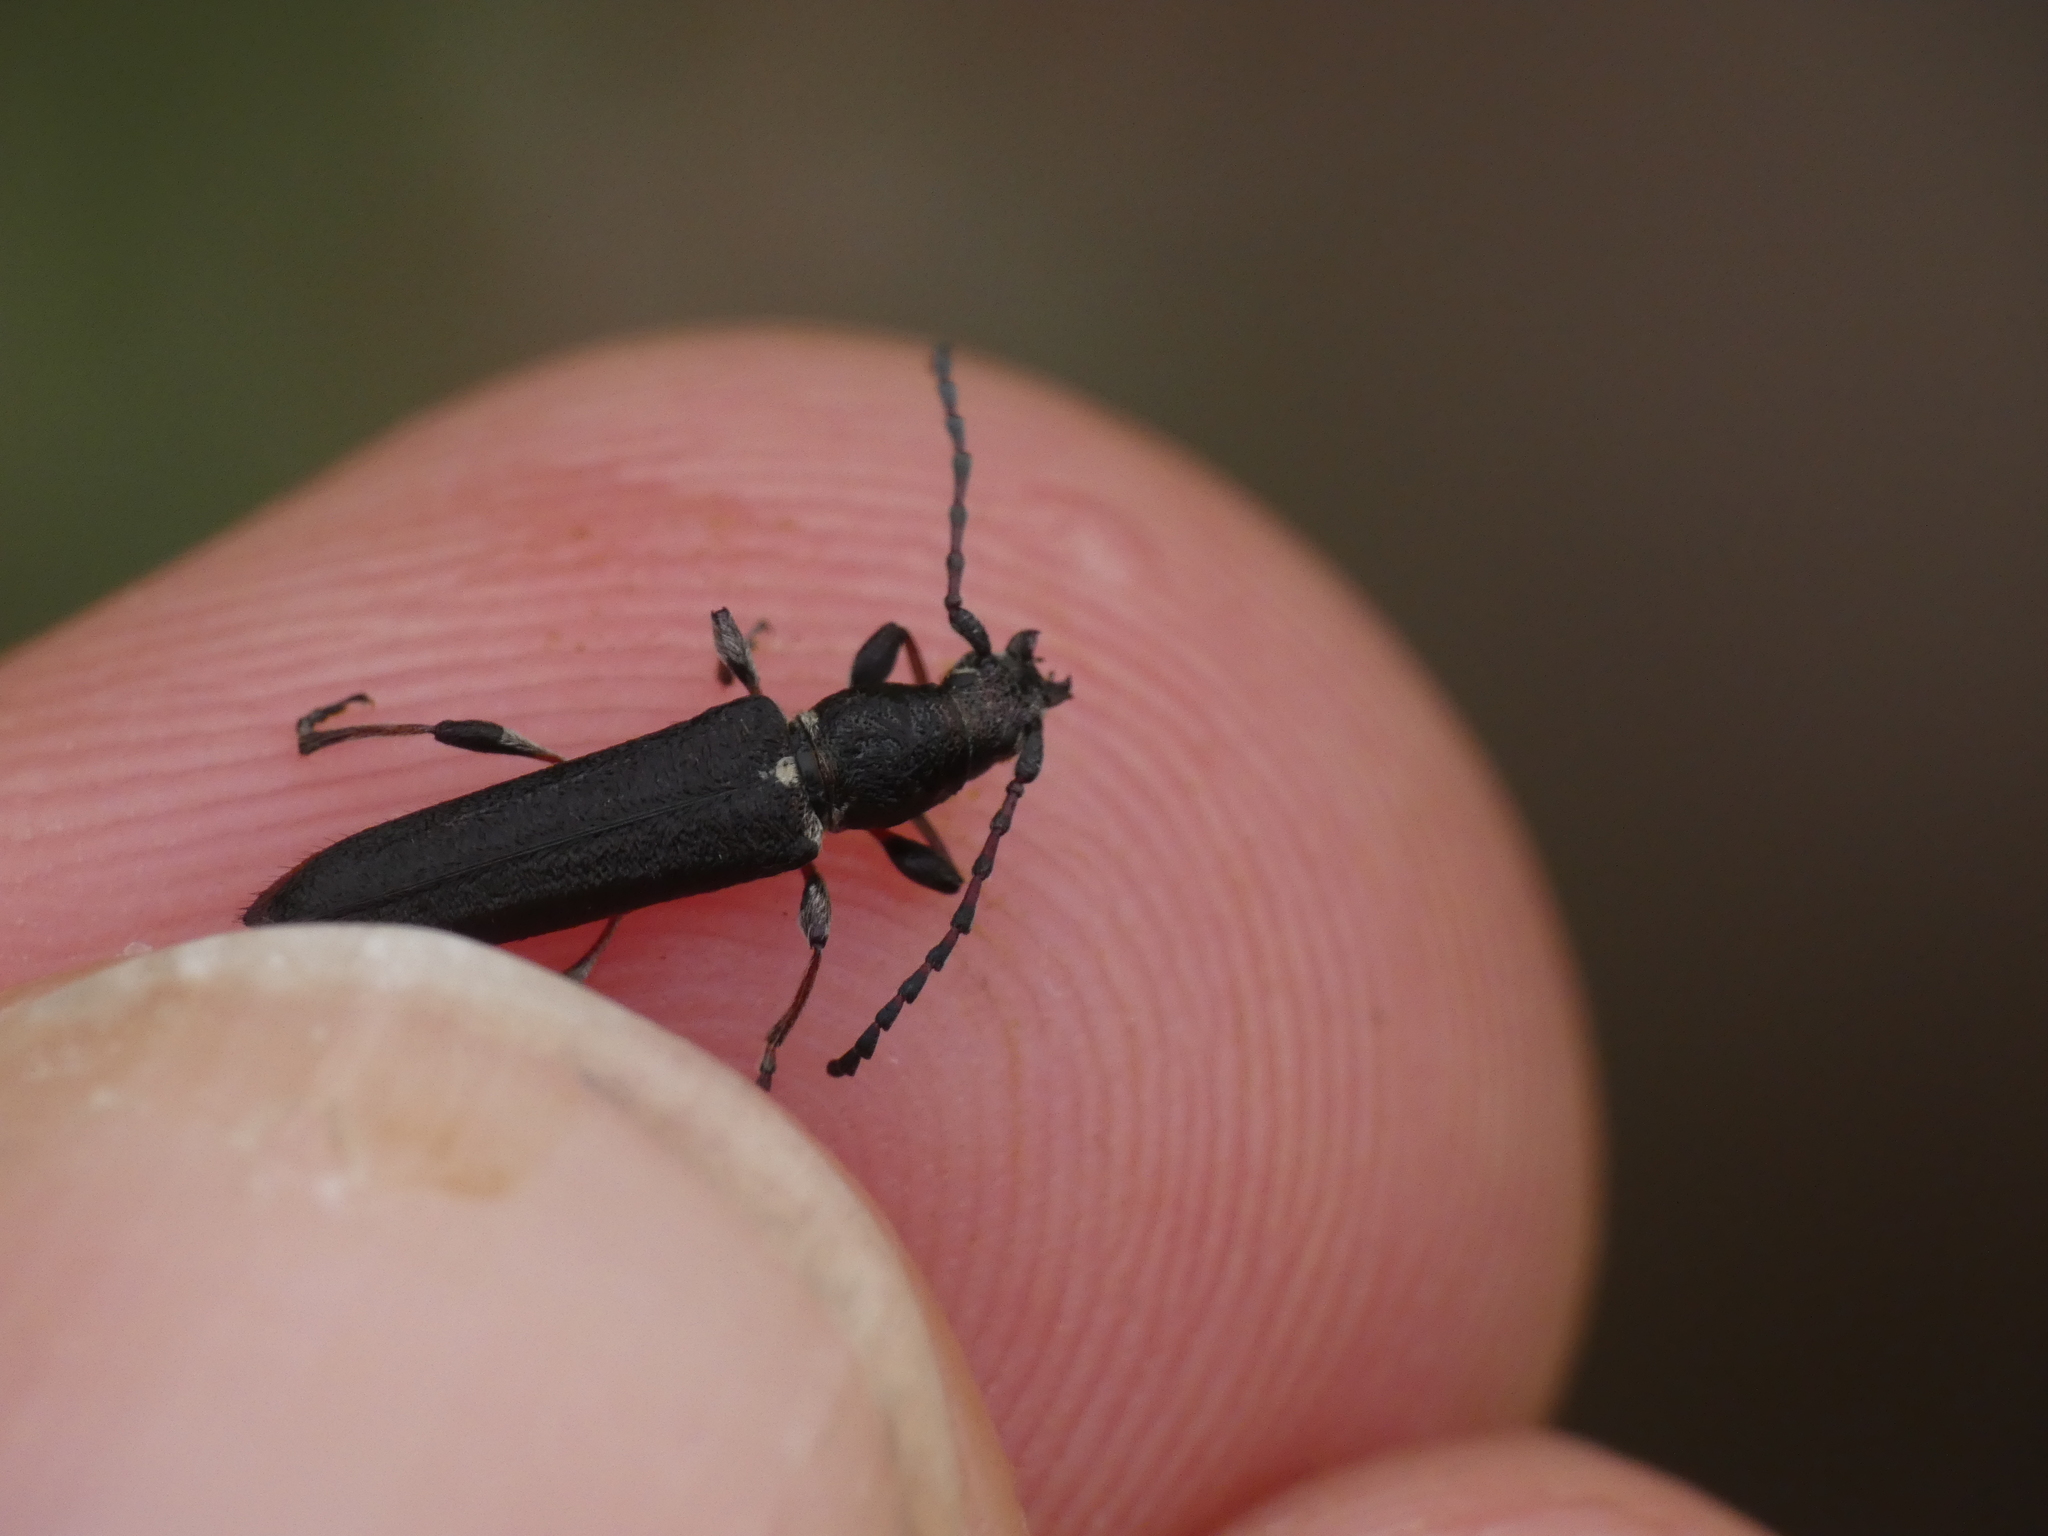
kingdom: Animalia
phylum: Arthropoda
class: Insecta
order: Coleoptera
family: Cerambycidae
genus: Deilus
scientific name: Deilus fugax
